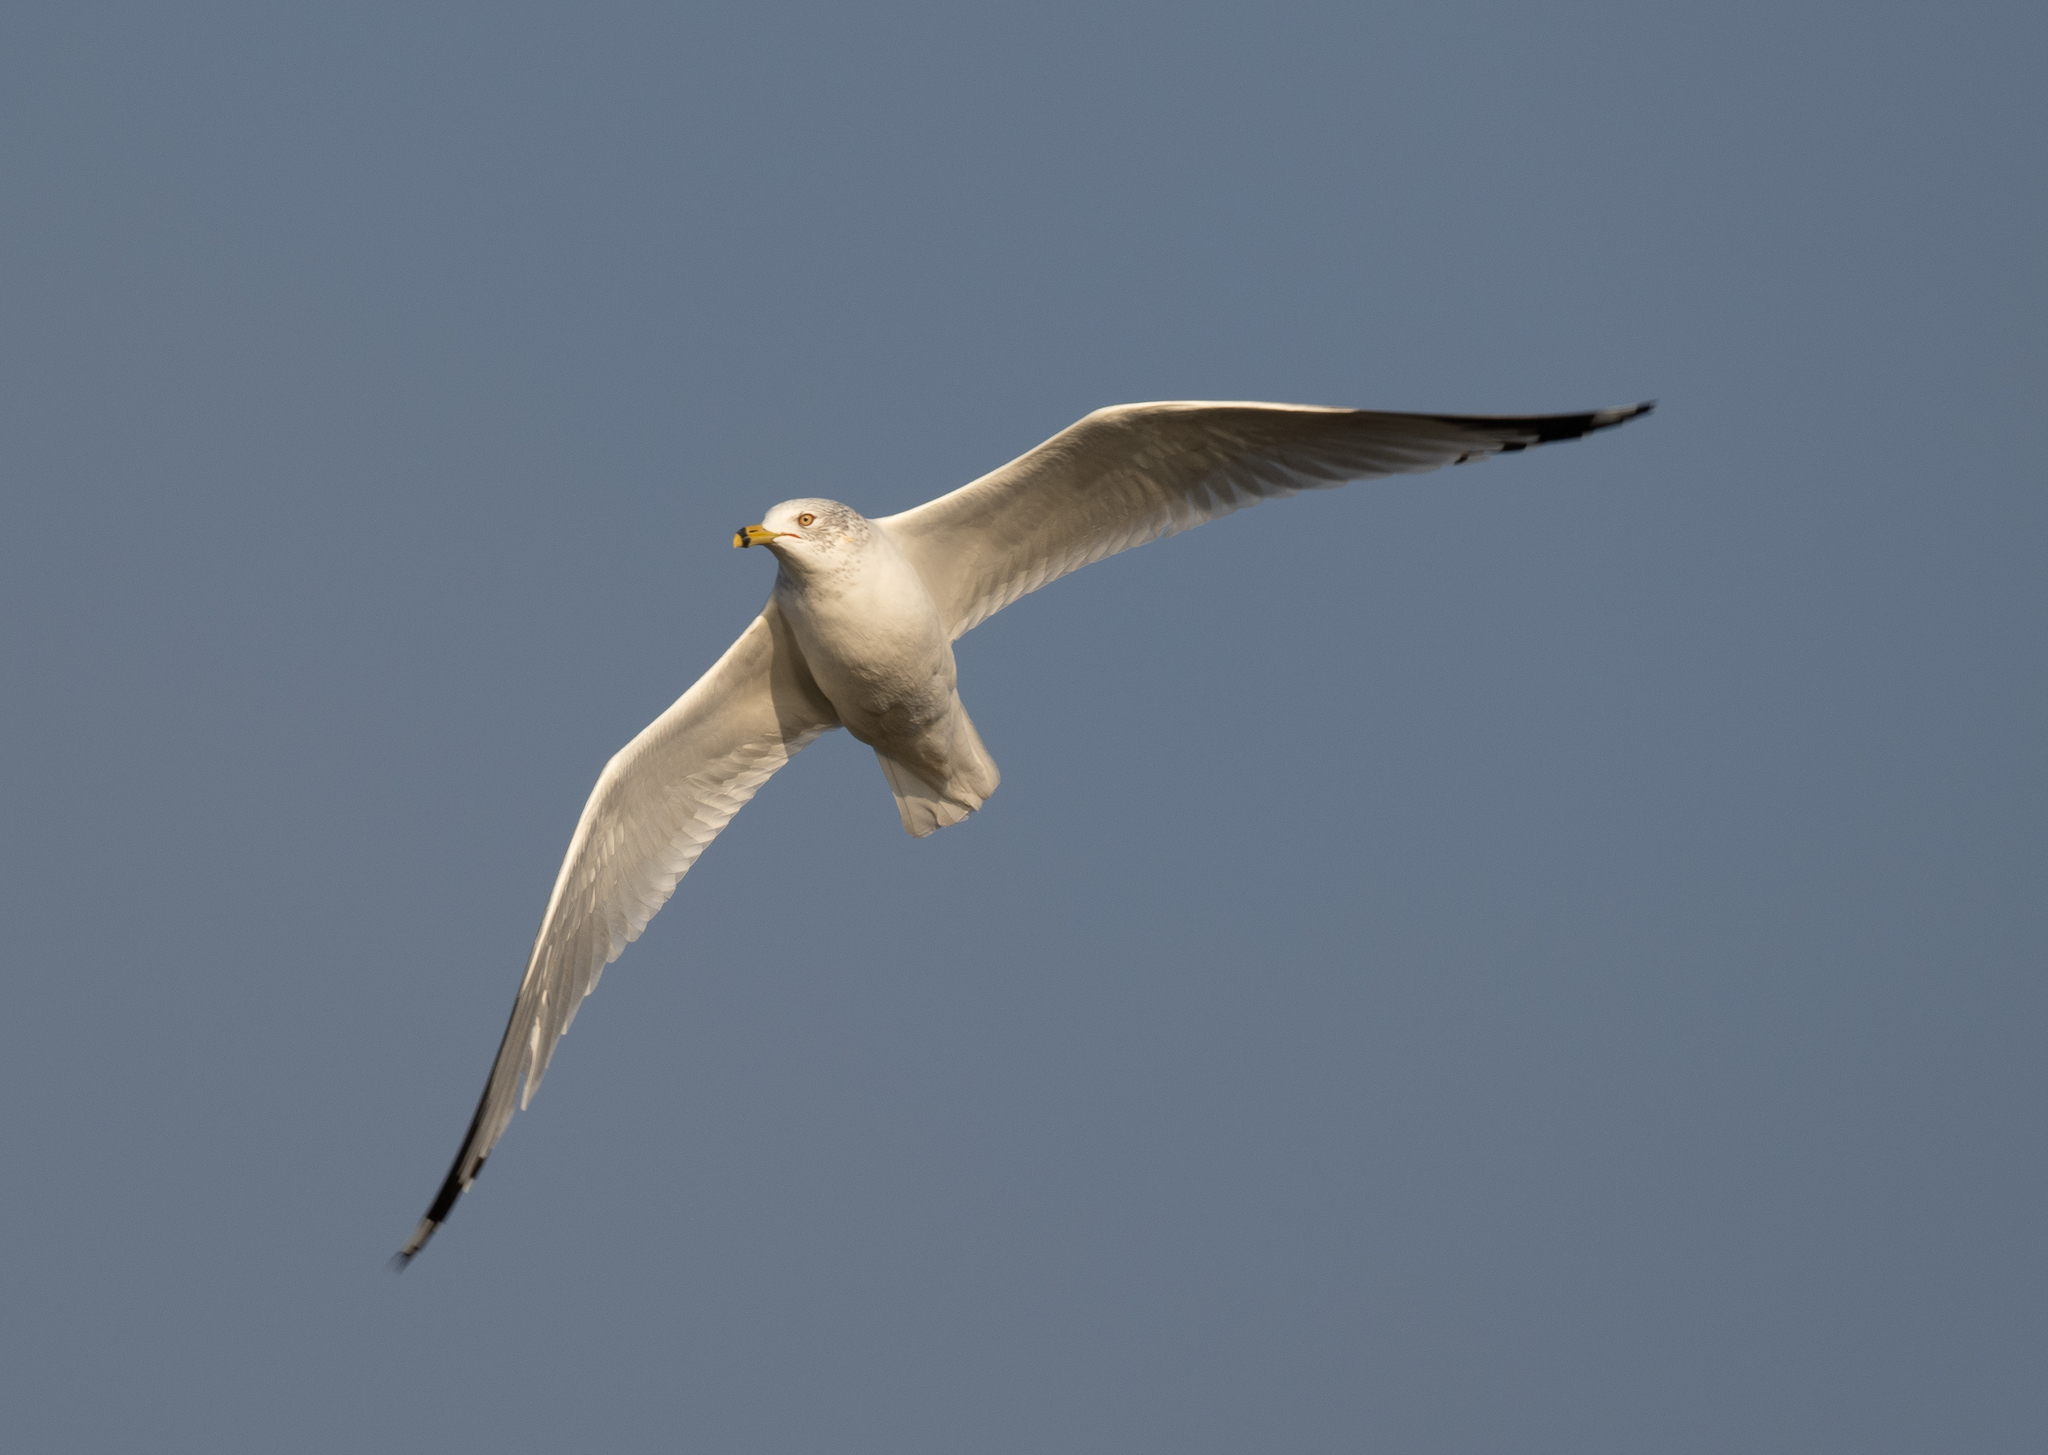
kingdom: Animalia
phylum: Chordata
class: Aves
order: Charadriiformes
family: Laridae
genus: Larus
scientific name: Larus delawarensis
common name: Ring-billed gull
